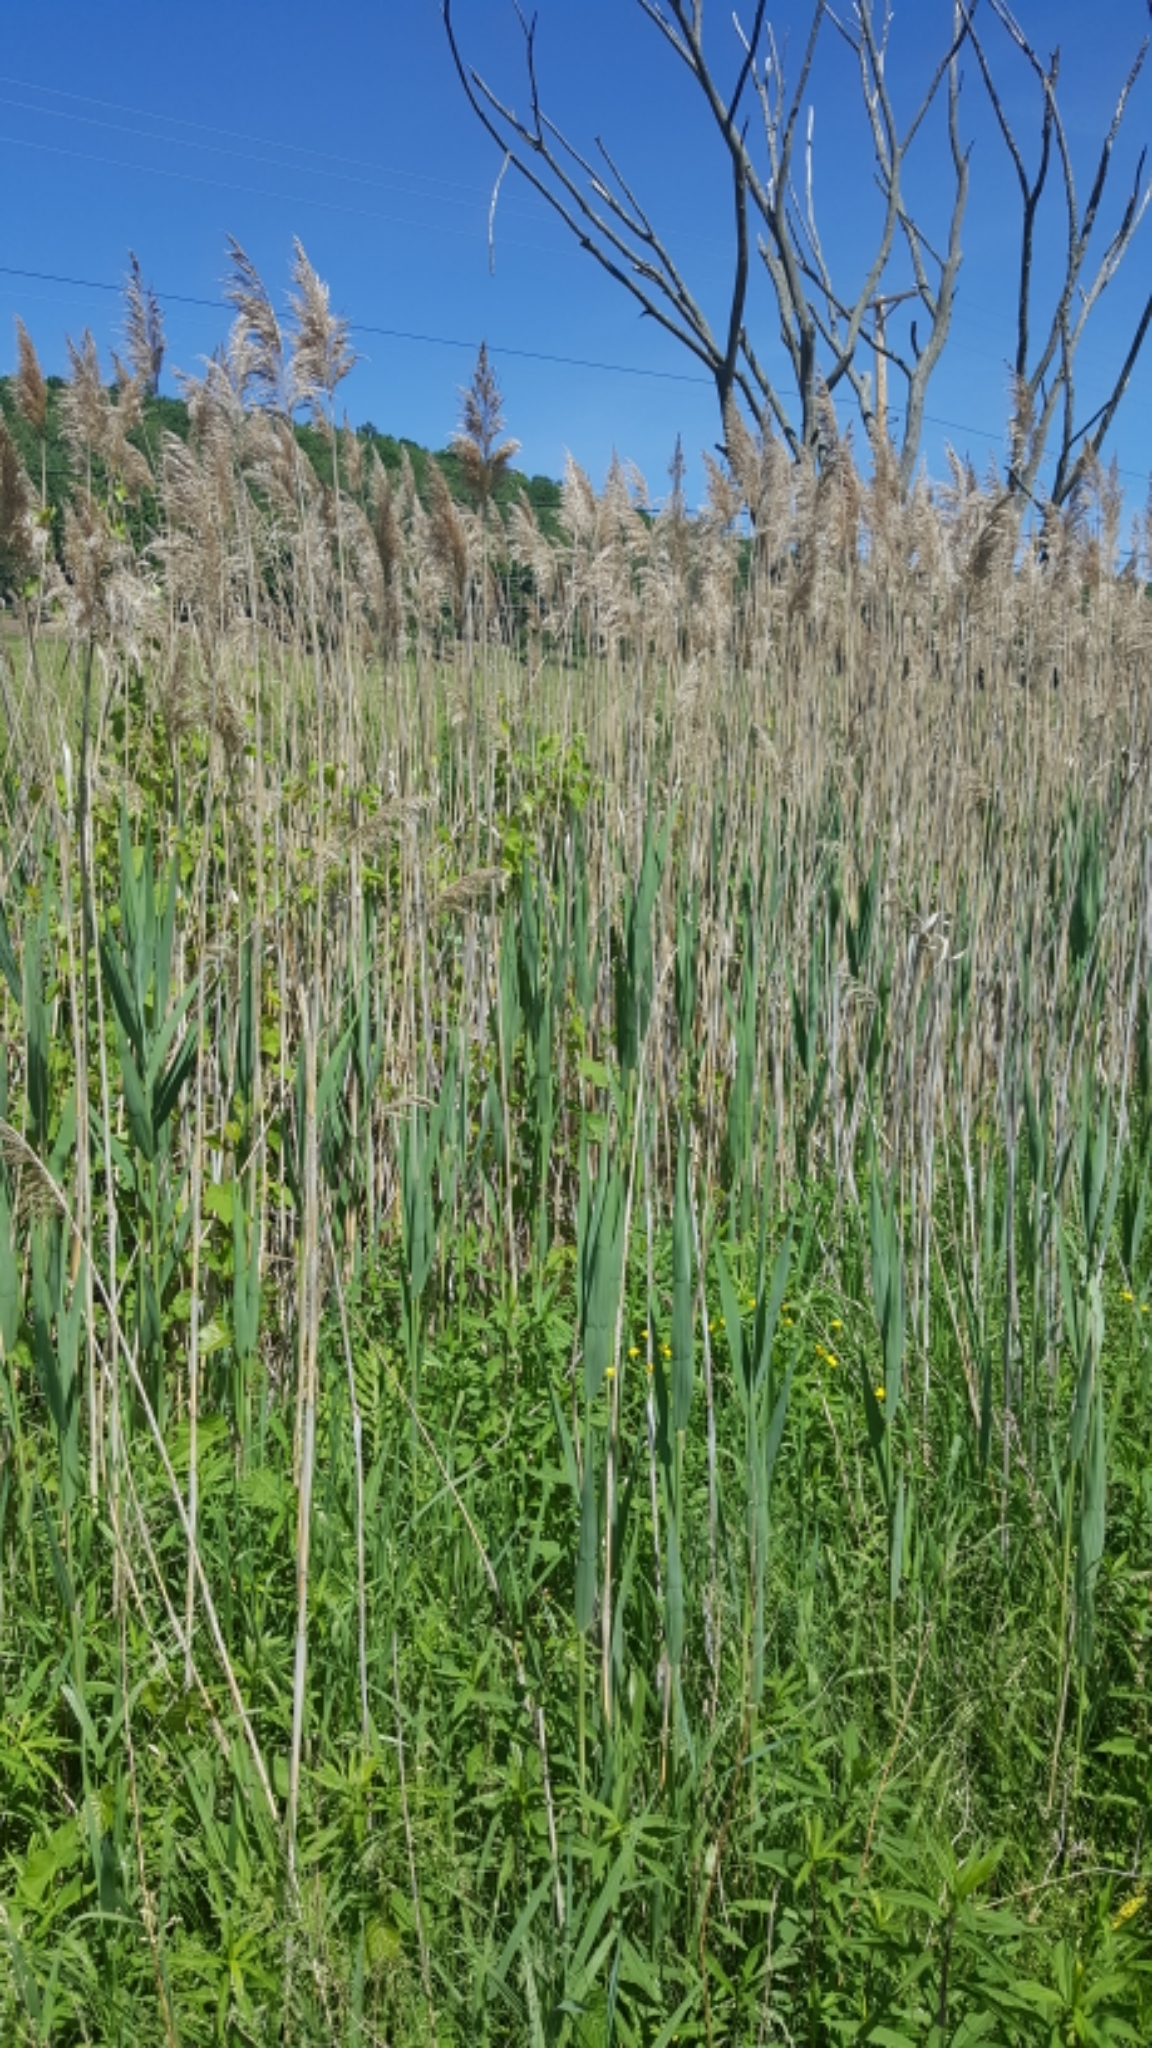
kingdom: Plantae
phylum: Tracheophyta
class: Liliopsida
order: Poales
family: Poaceae
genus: Phragmites
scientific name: Phragmites australis
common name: Common reed
